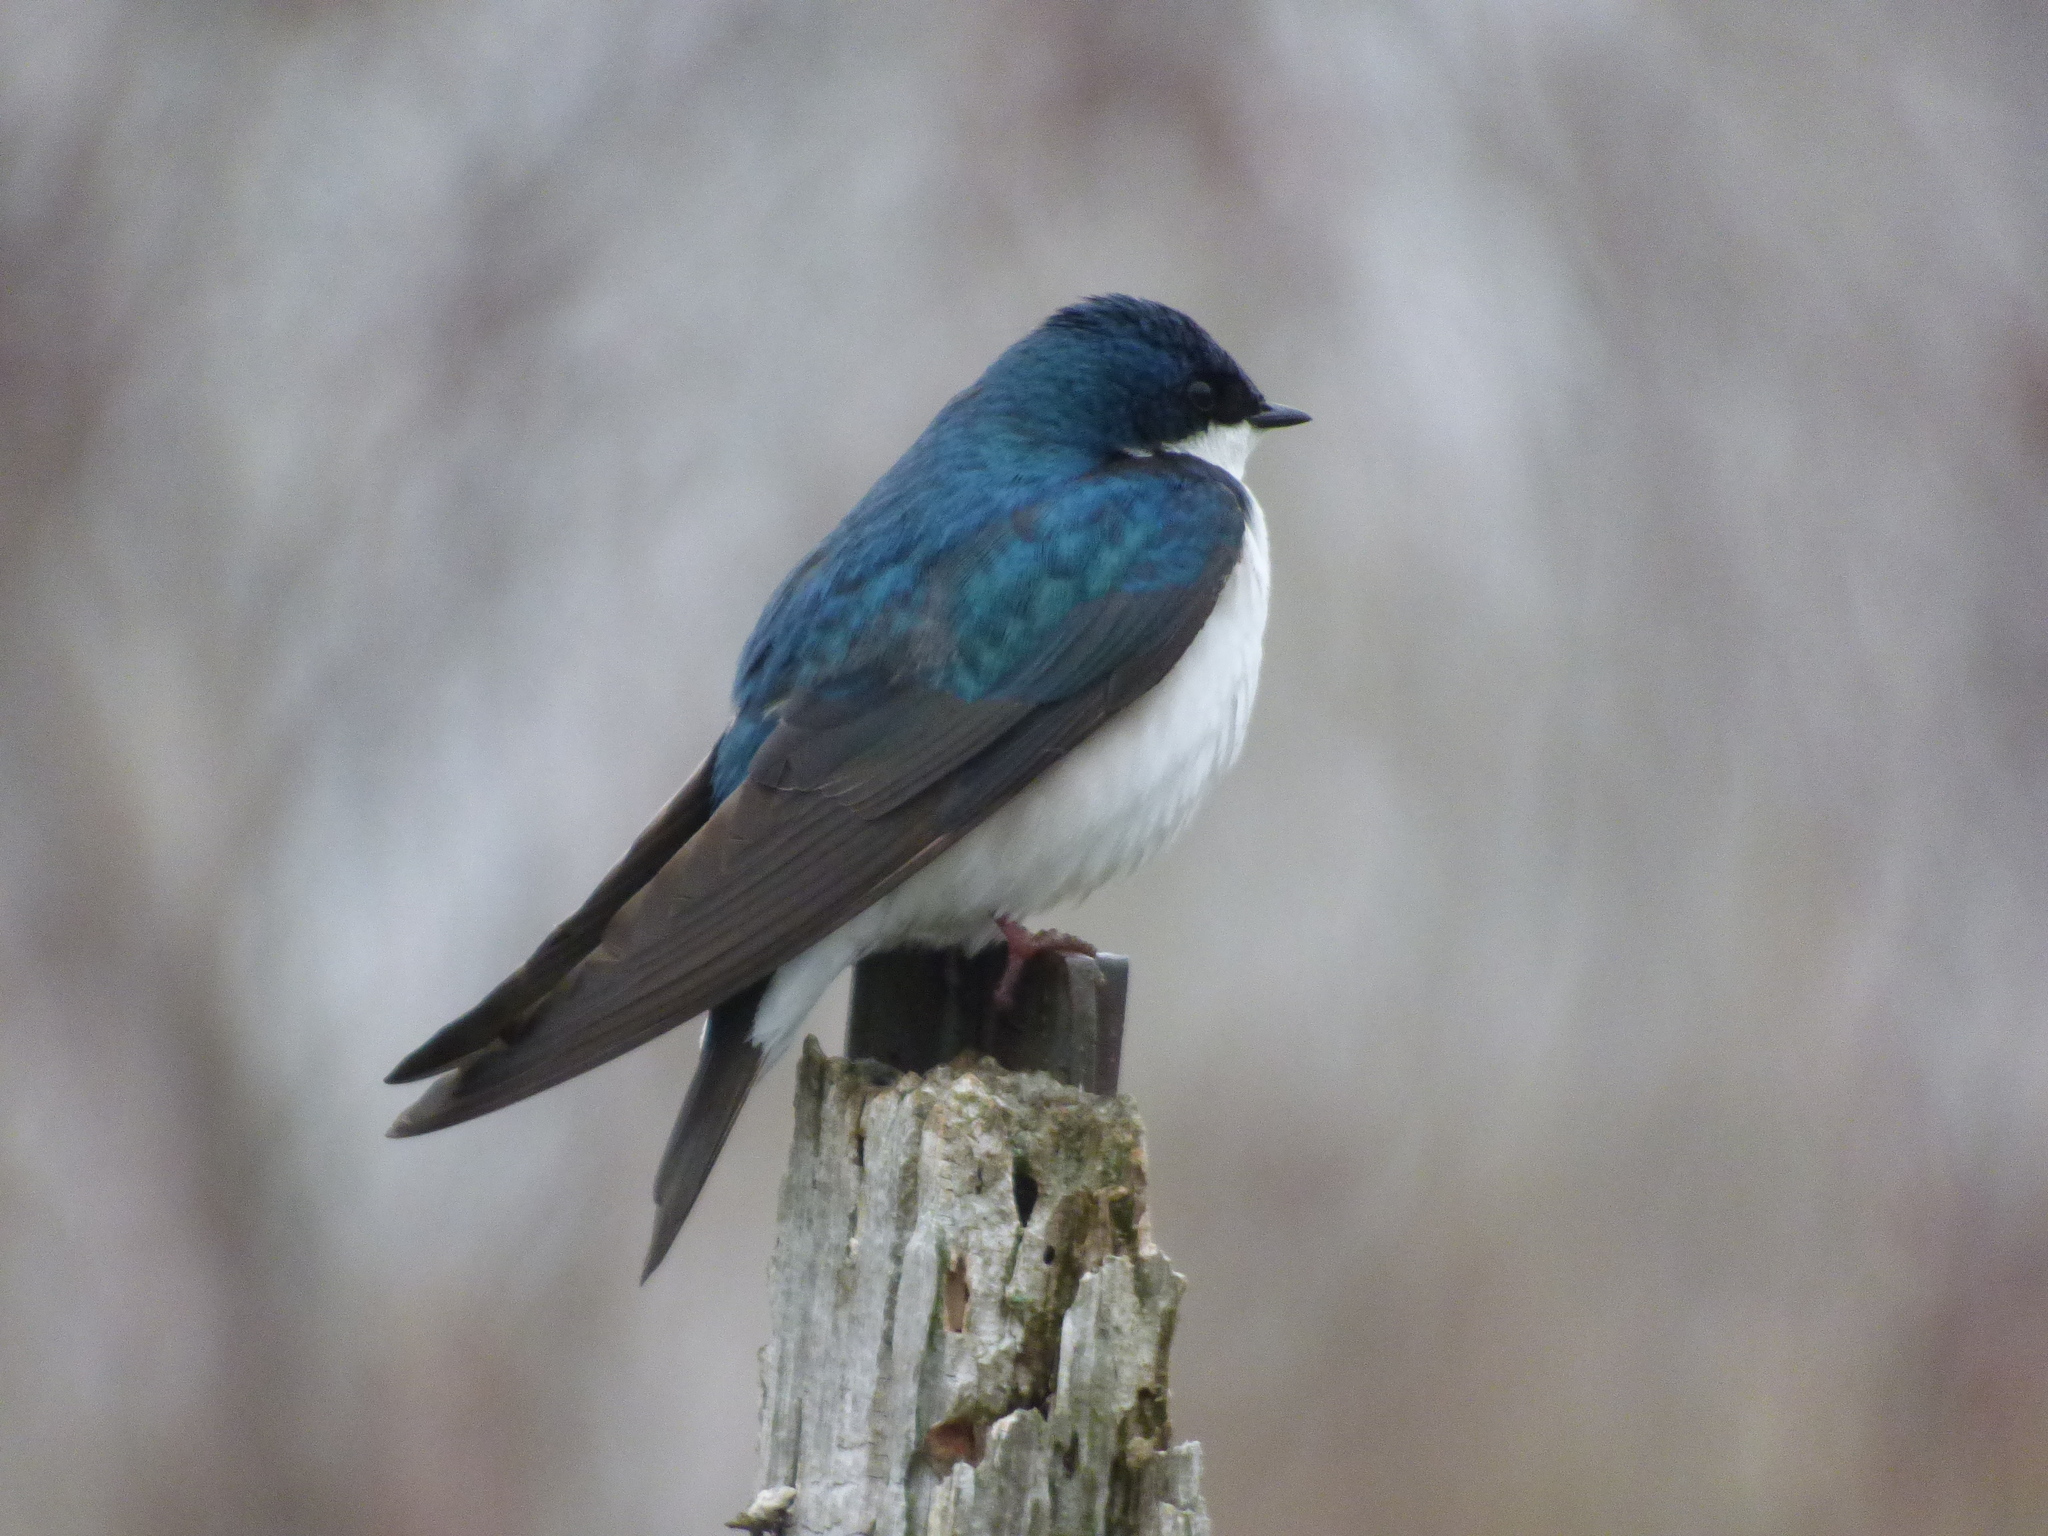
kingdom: Animalia
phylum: Chordata
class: Aves
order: Passeriformes
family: Hirundinidae
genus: Tachycineta
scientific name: Tachycineta bicolor
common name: Tree swallow
